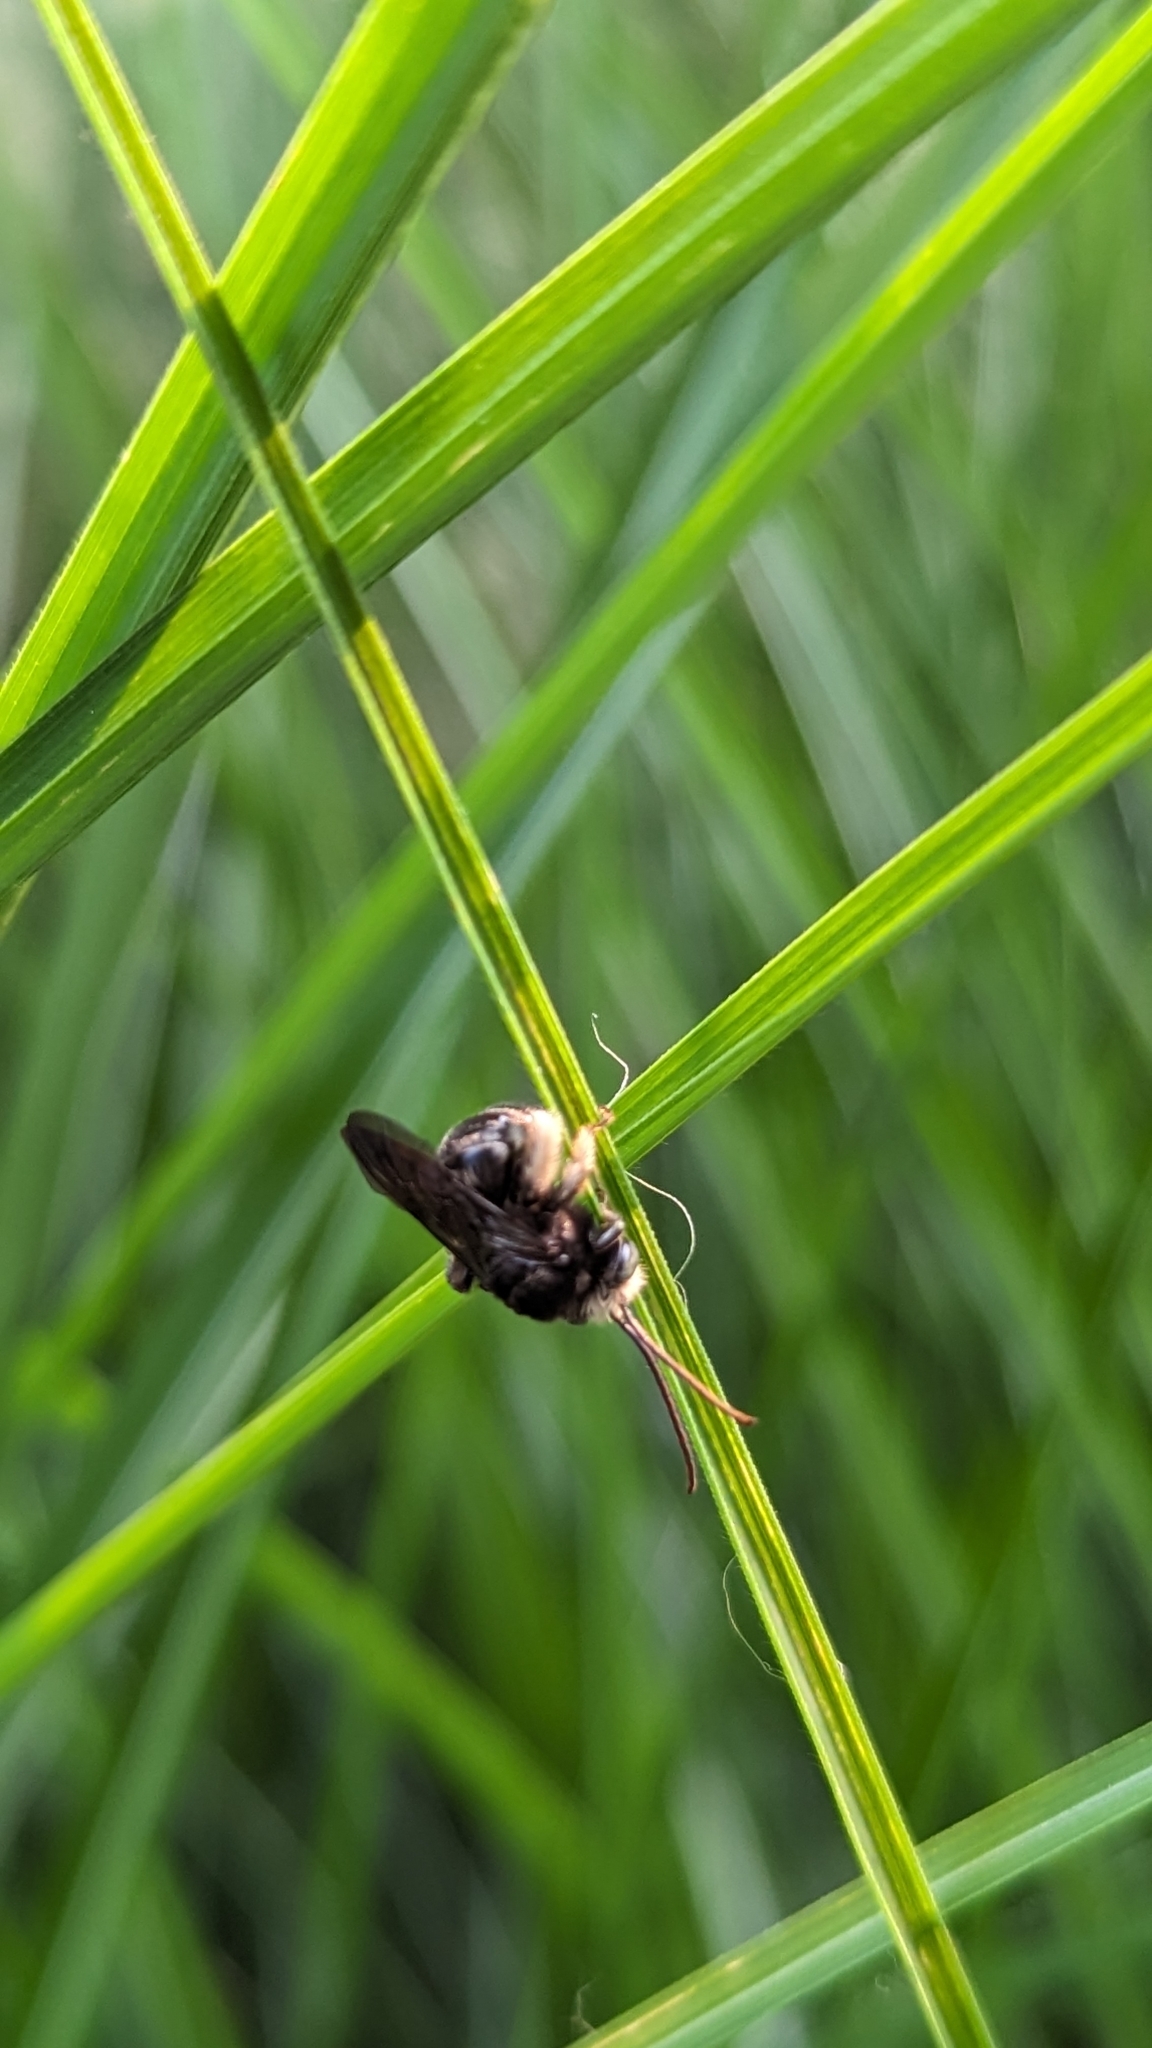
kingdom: Animalia
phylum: Arthropoda
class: Insecta
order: Hymenoptera
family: Apidae
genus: Melissodes
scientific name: Melissodes bimaculatus
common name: Two-spotted long-horned bee
